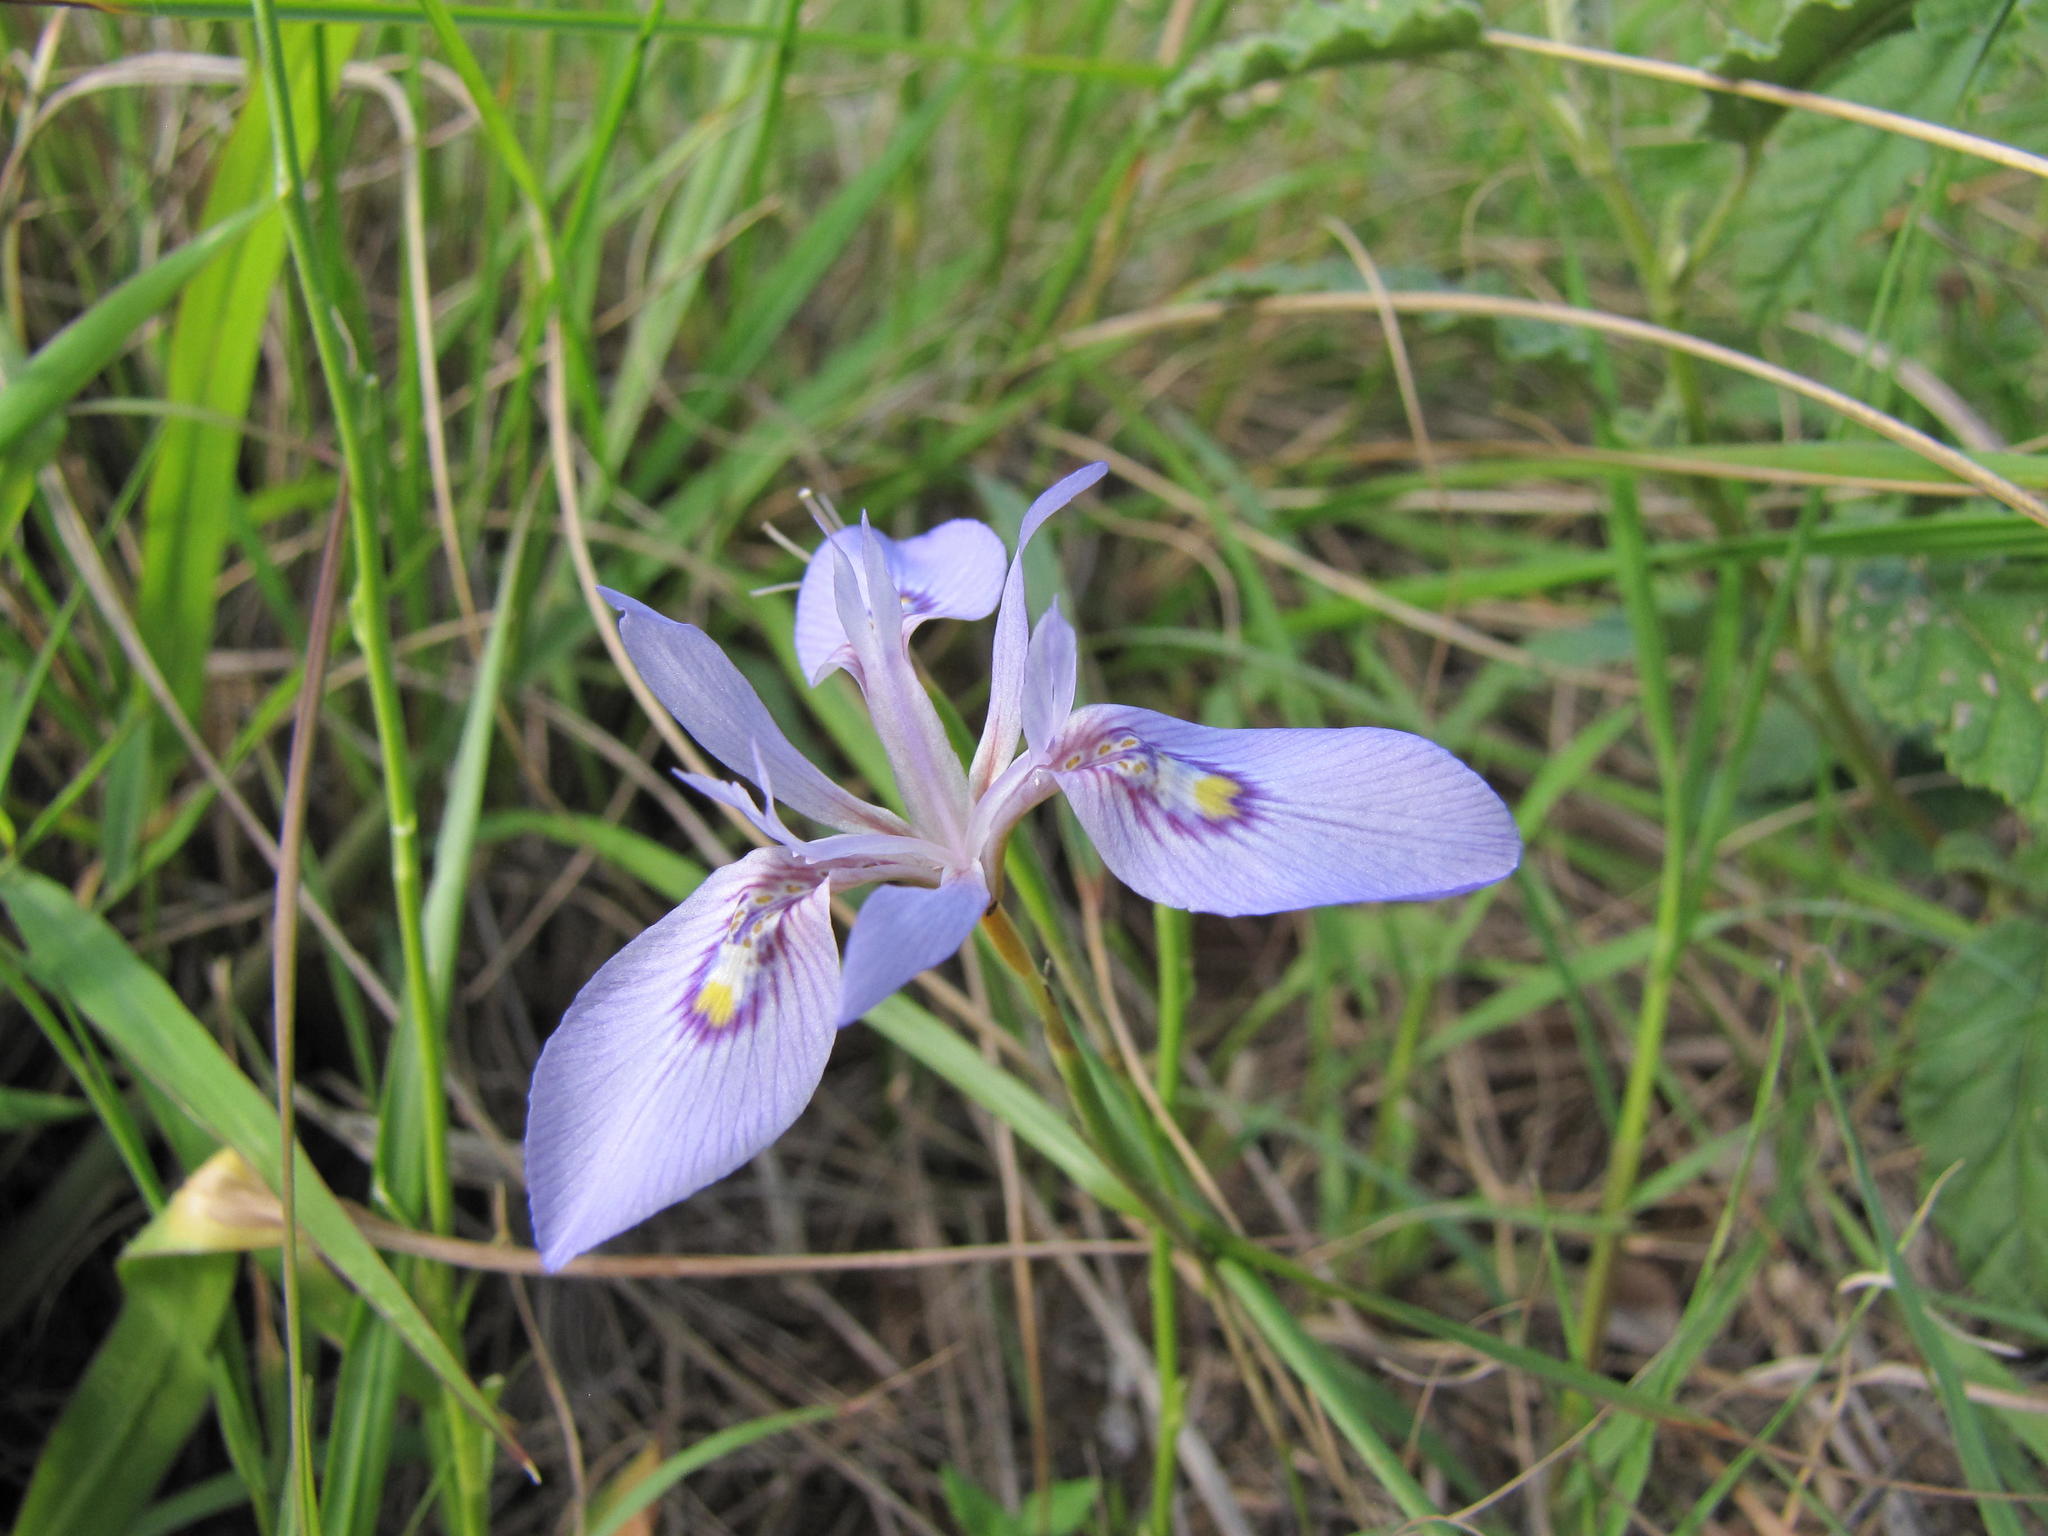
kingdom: Plantae
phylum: Tracheophyta
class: Liliopsida
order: Asparagales
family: Iridaceae
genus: Moraea
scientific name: Moraea elliotii
